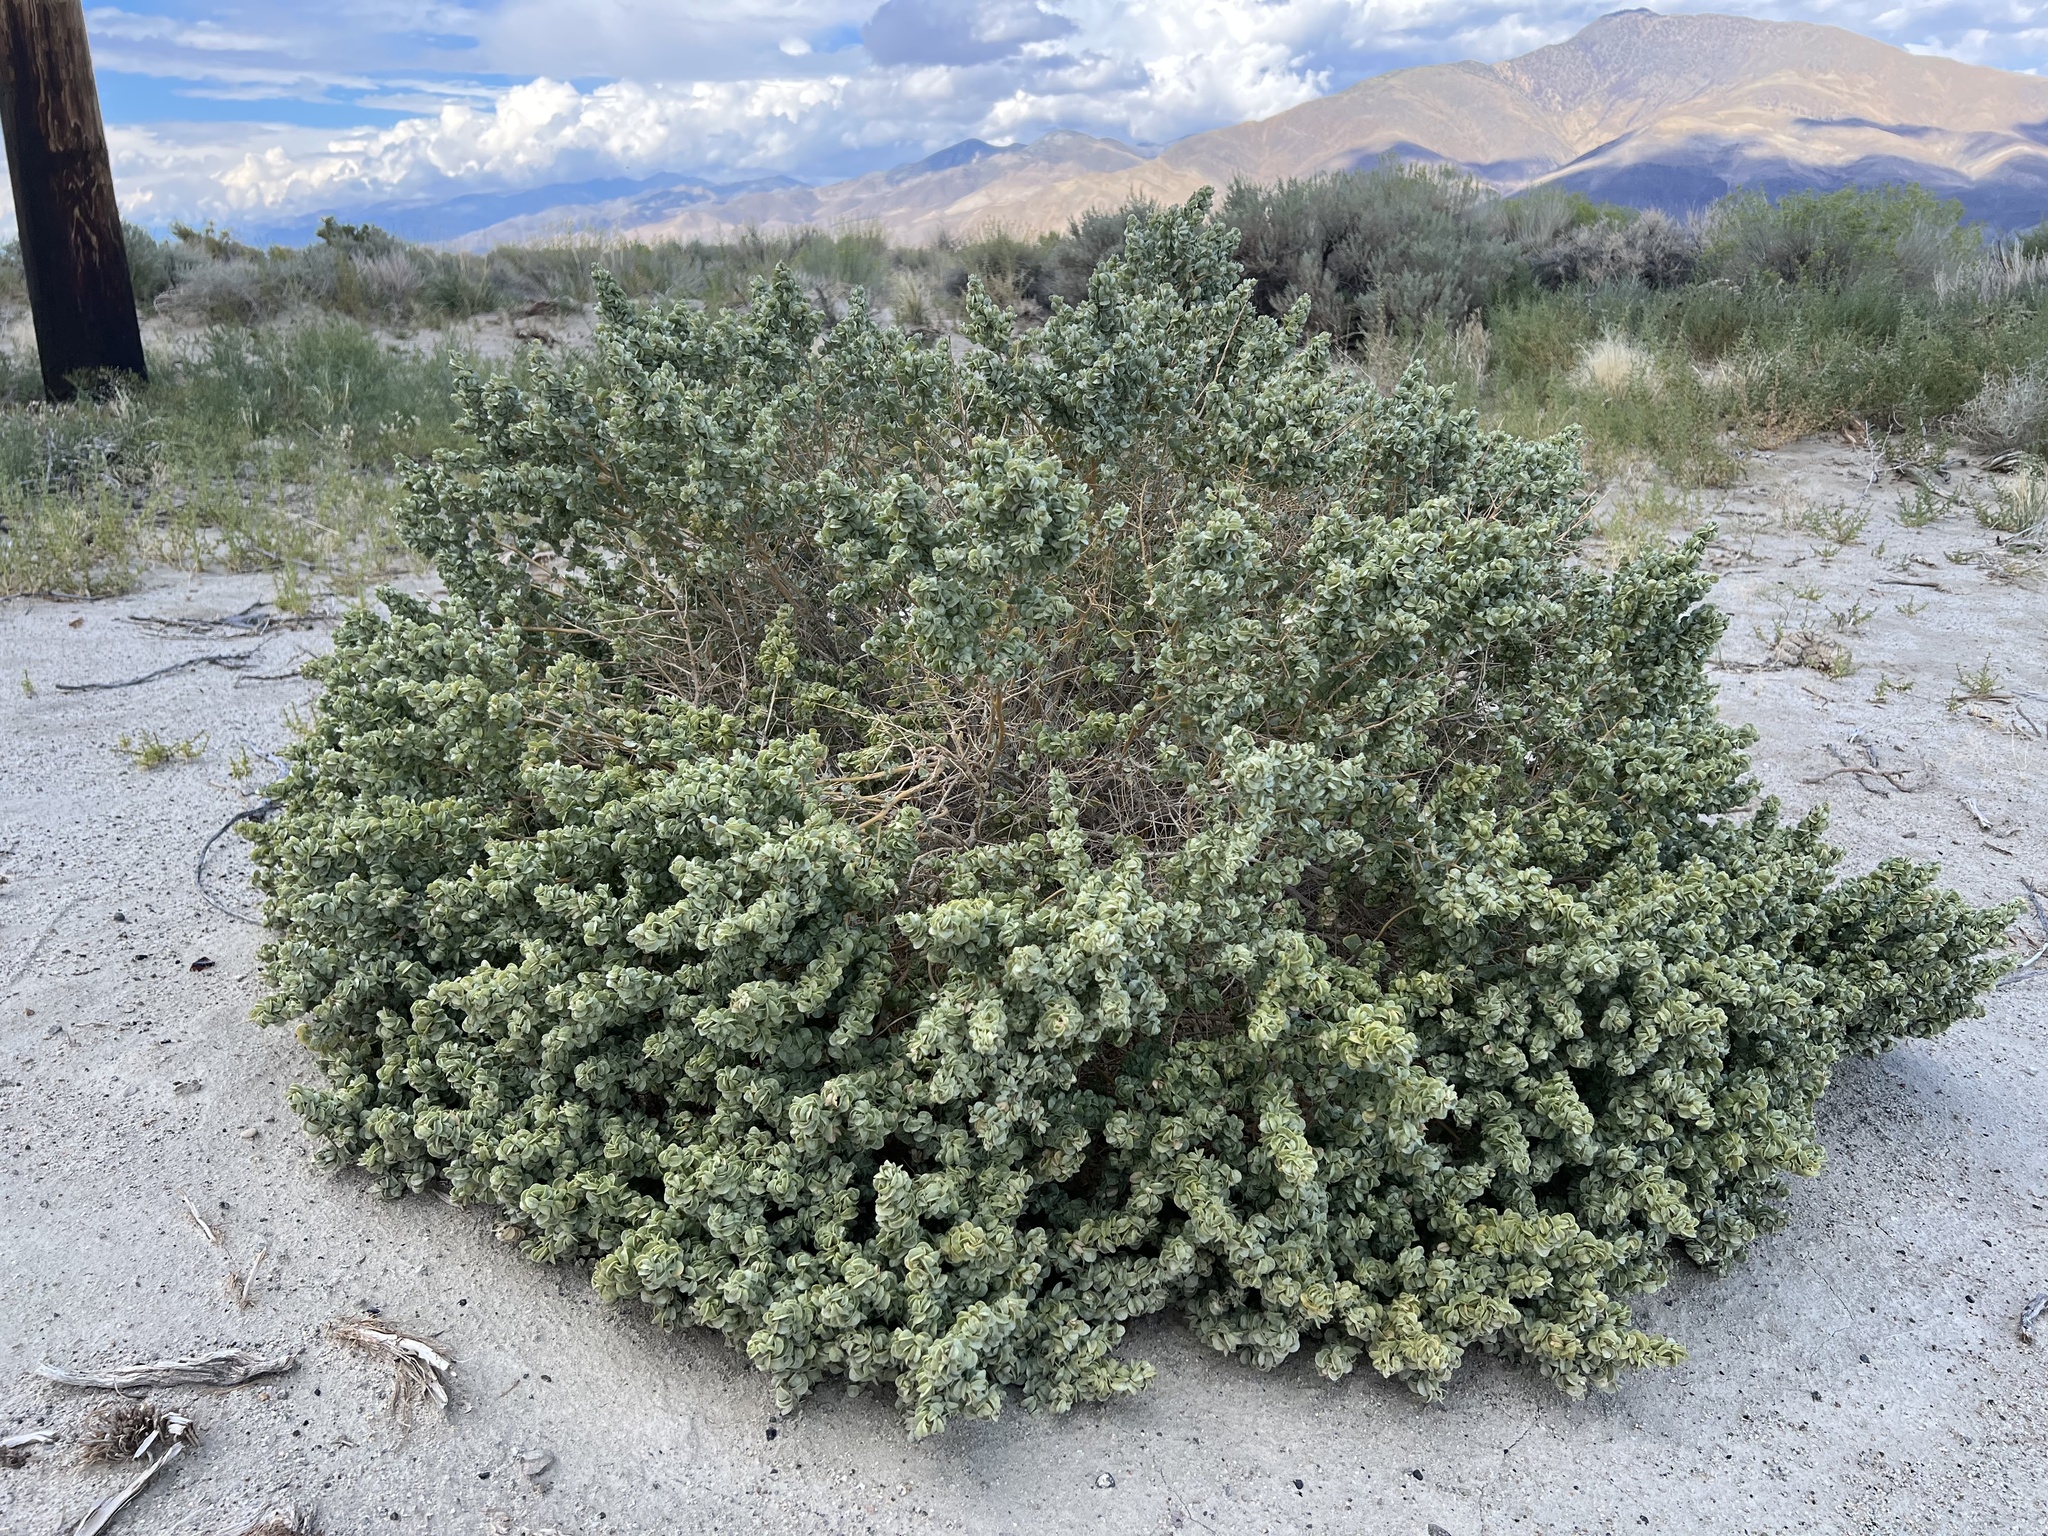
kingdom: Plantae
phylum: Tracheophyta
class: Magnoliopsida
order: Caryophyllales
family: Amaranthaceae
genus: Atriplex
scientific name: Atriplex confertifolia
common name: Shadscale
